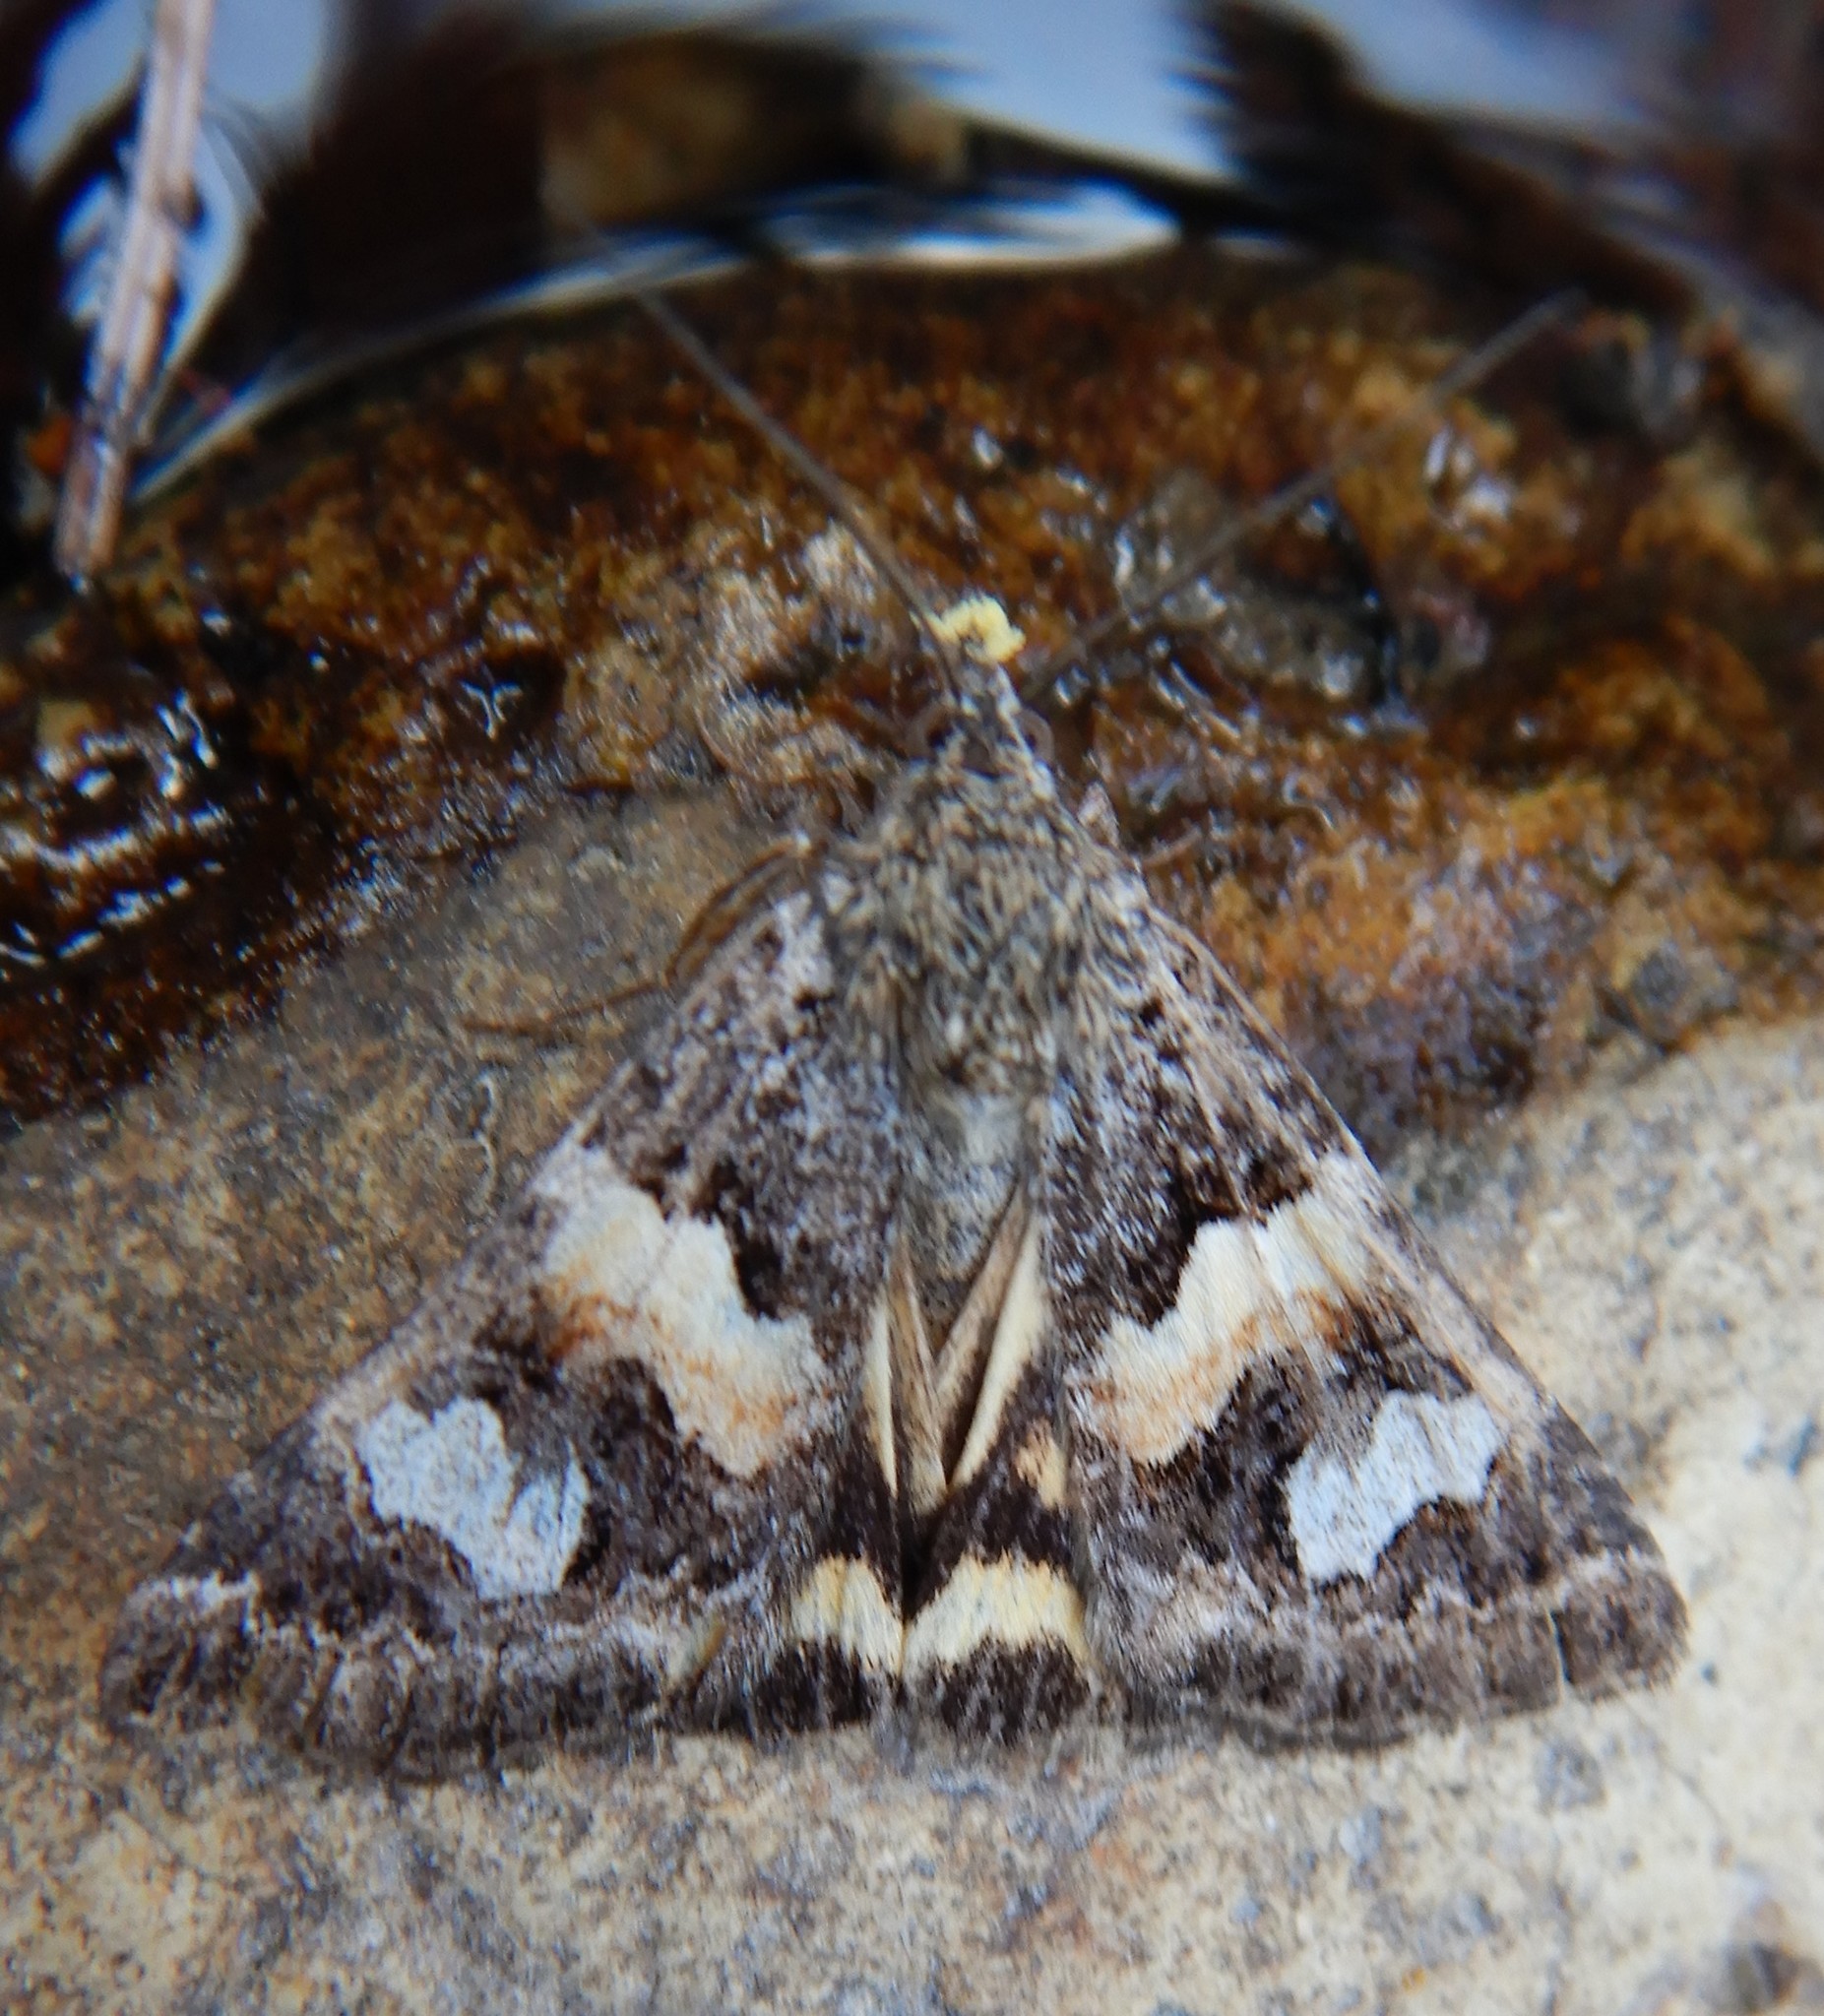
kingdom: Animalia
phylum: Arthropoda
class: Insecta
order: Lepidoptera
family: Erebidae
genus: Drasteria
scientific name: Drasteria hudsonica
